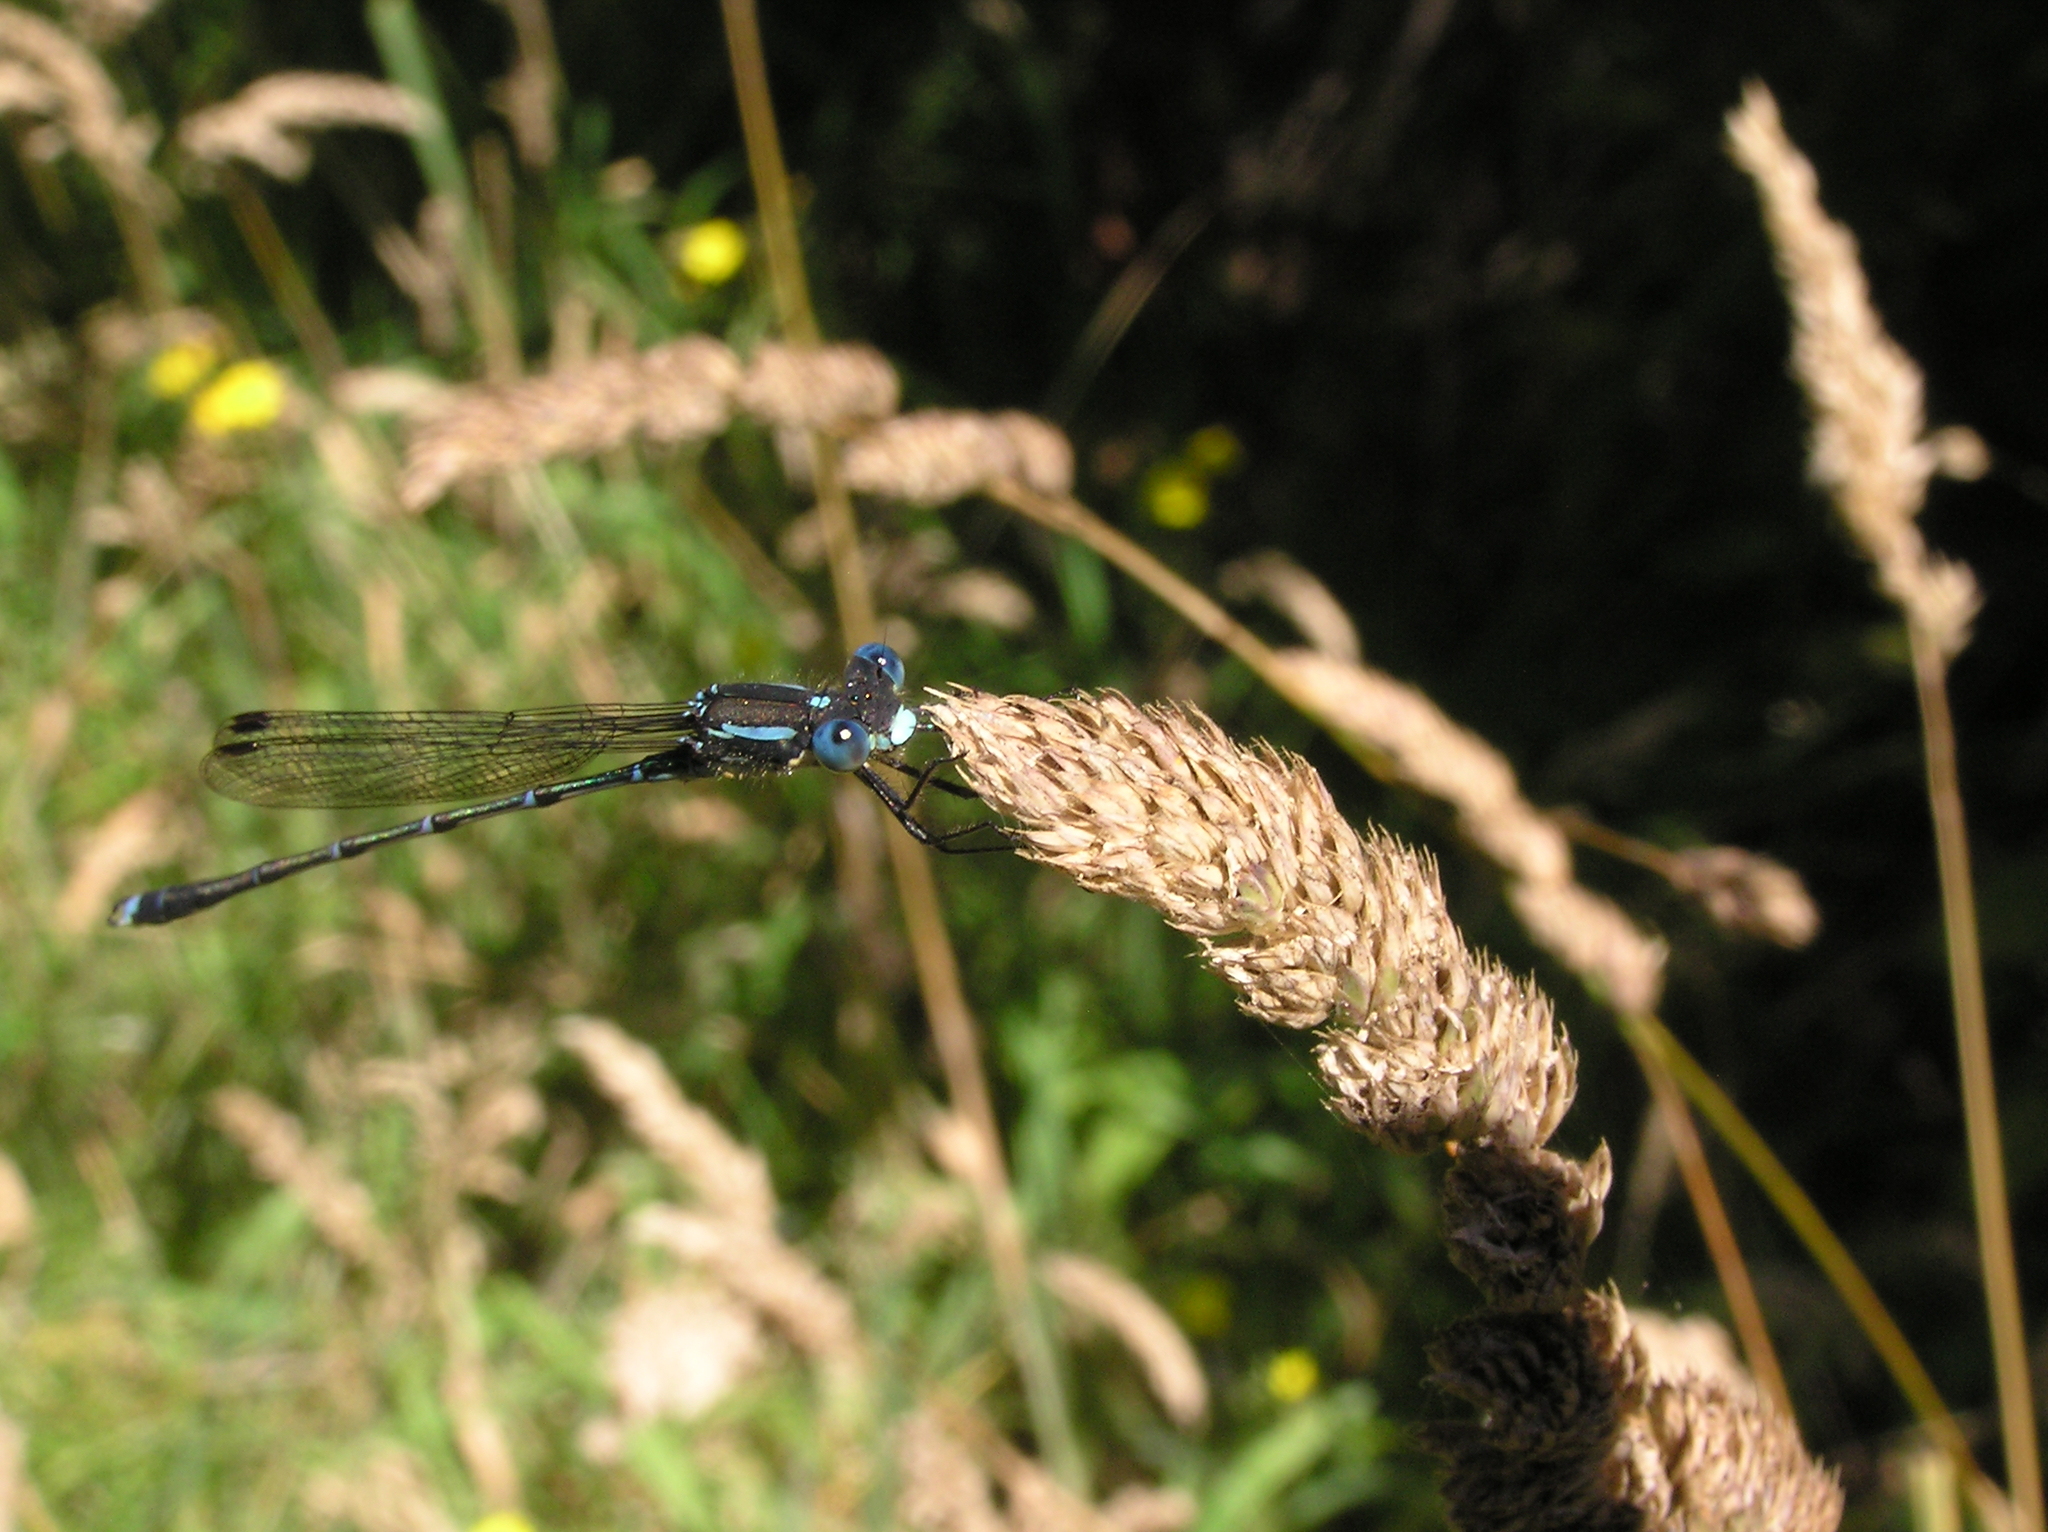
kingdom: Animalia
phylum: Arthropoda
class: Insecta
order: Odonata
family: Lestidae
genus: Austrolestes
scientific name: Austrolestes colensonis
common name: Blue damselfly
